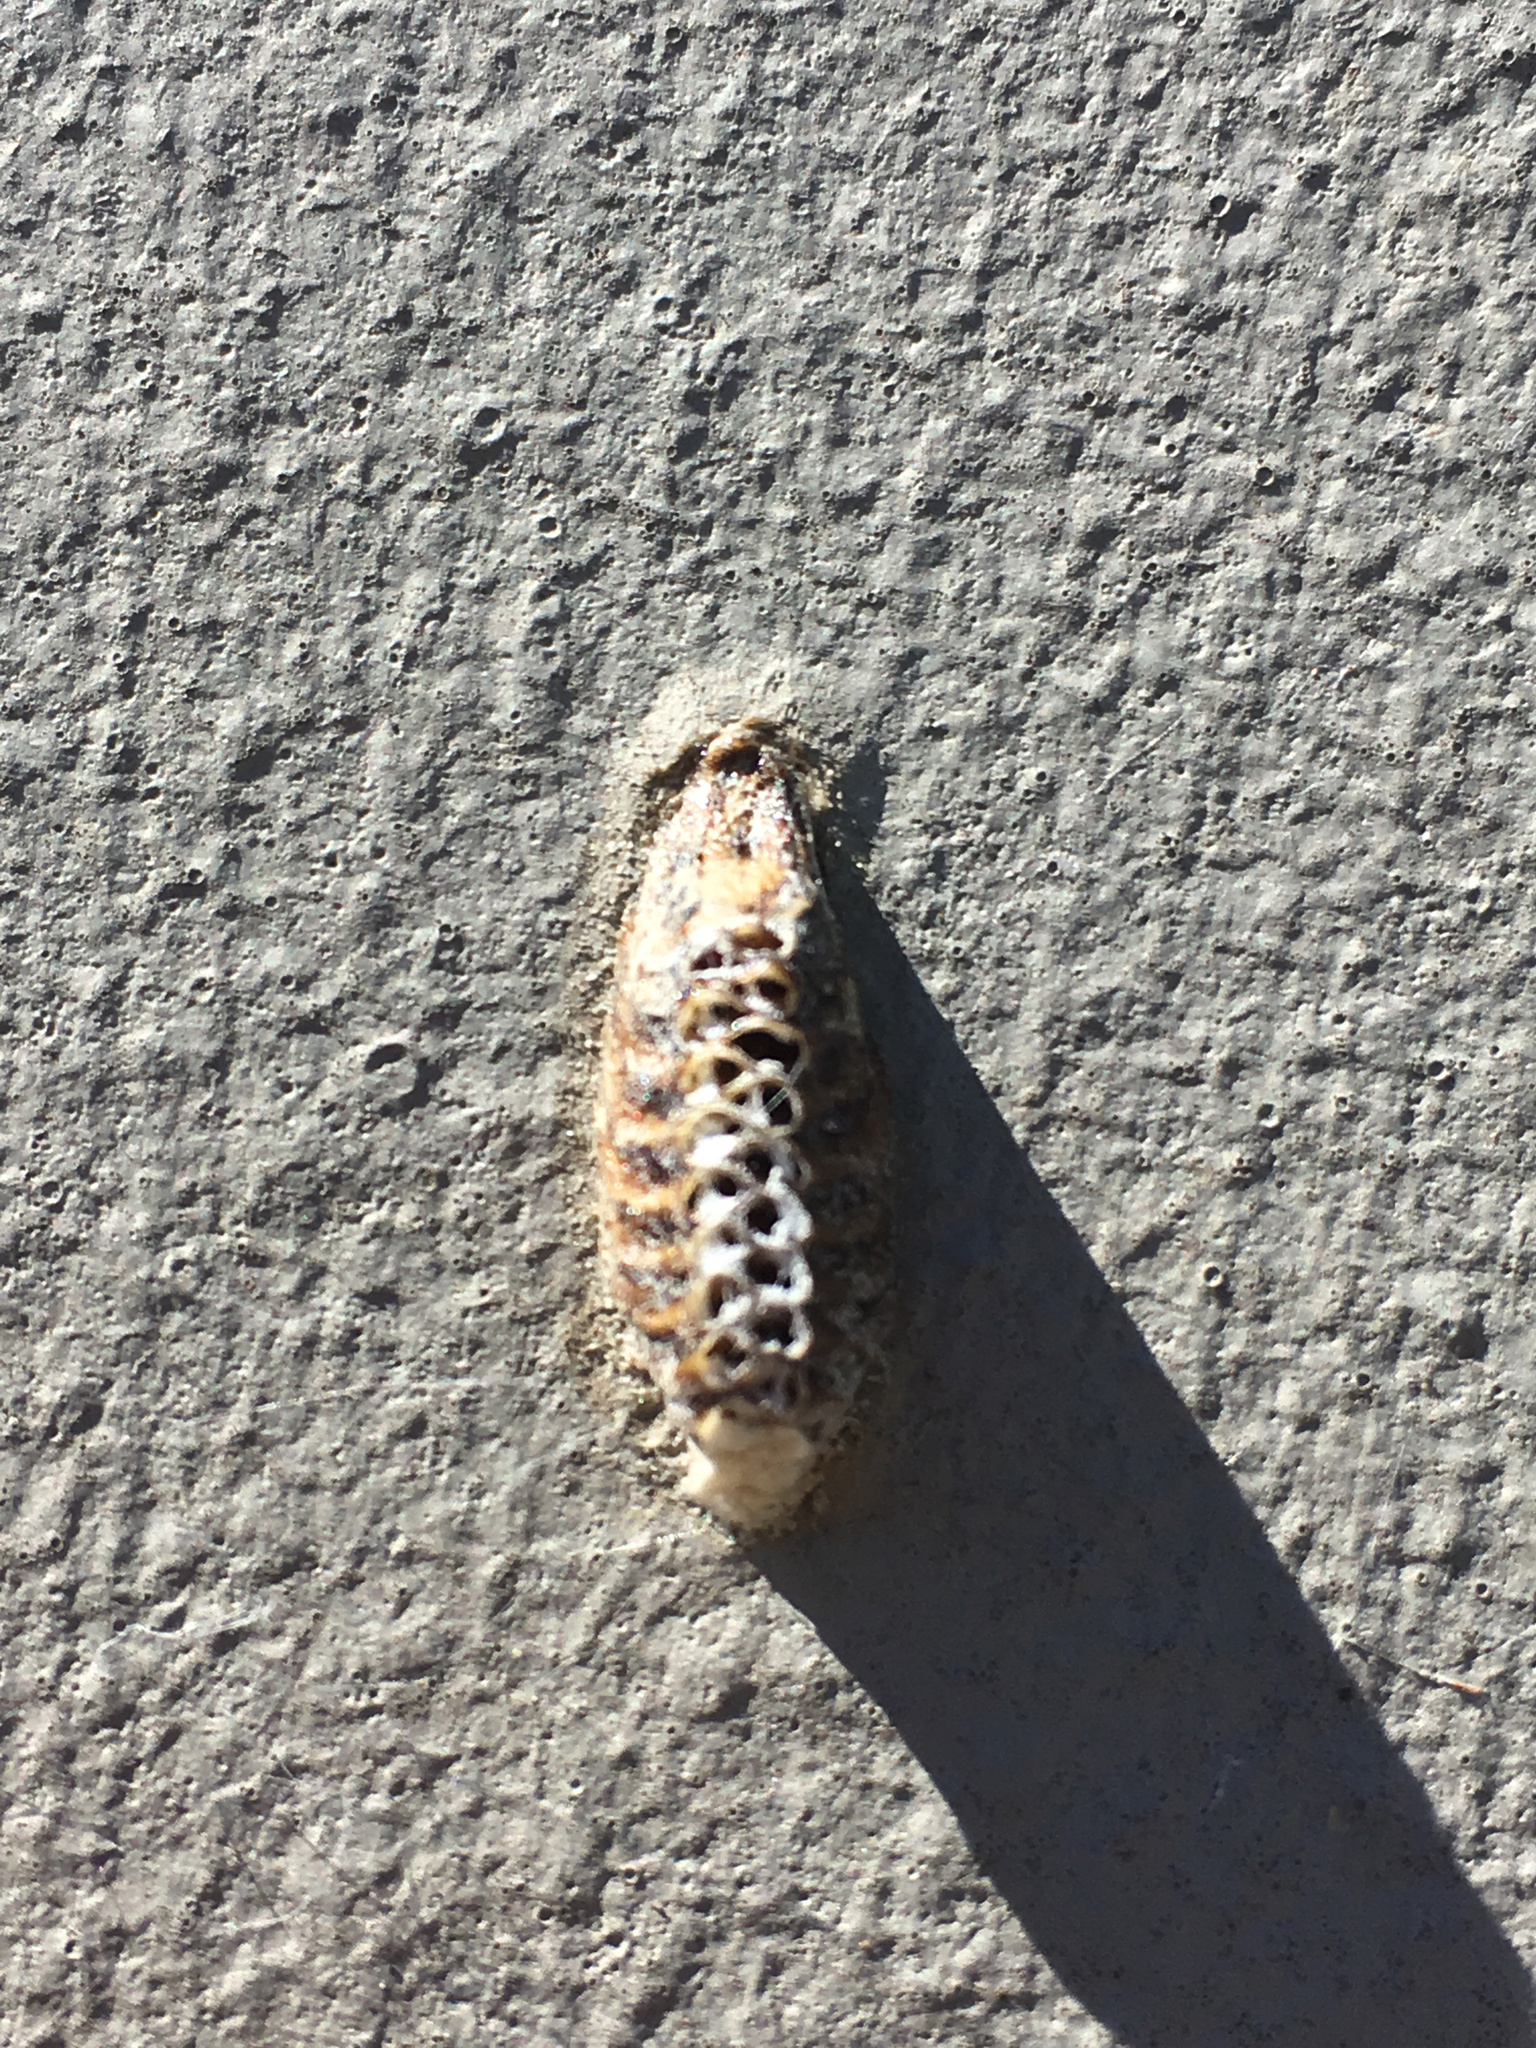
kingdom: Animalia
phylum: Arthropoda
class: Insecta
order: Mantodea
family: Mantidae
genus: Orthodera
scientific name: Orthodera novaezealandiae
